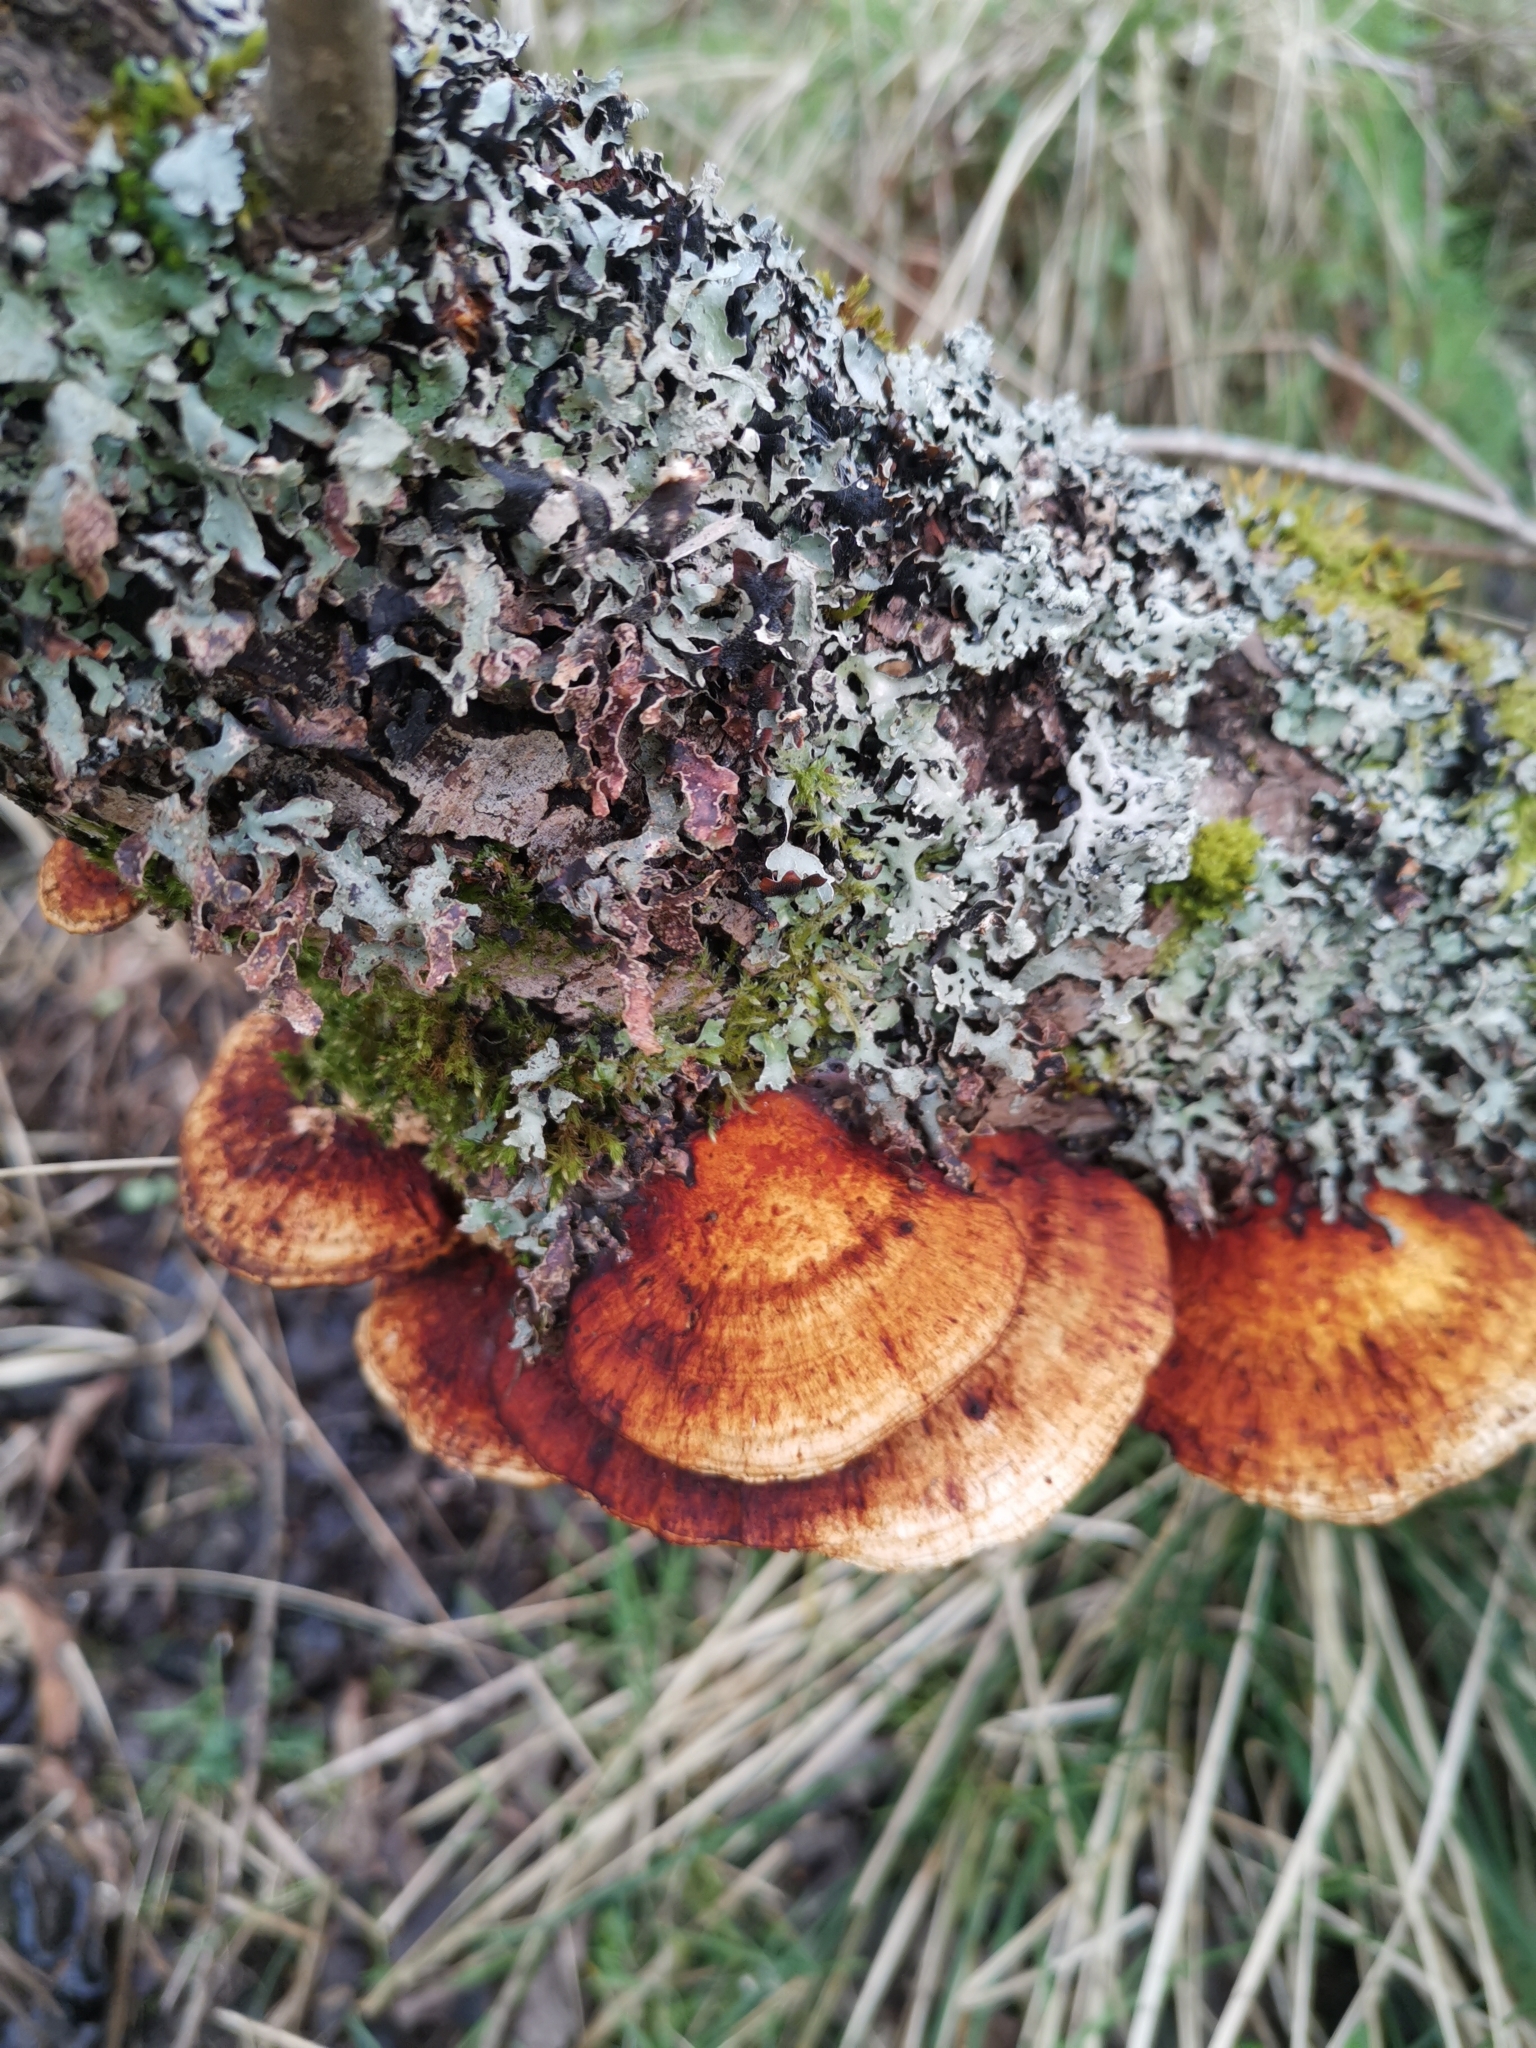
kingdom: Fungi
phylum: Basidiomycota
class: Agaricomycetes
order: Polyporales
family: Polyporaceae
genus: Daedaleopsis
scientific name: Daedaleopsis confragosa
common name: Blushing bracket
